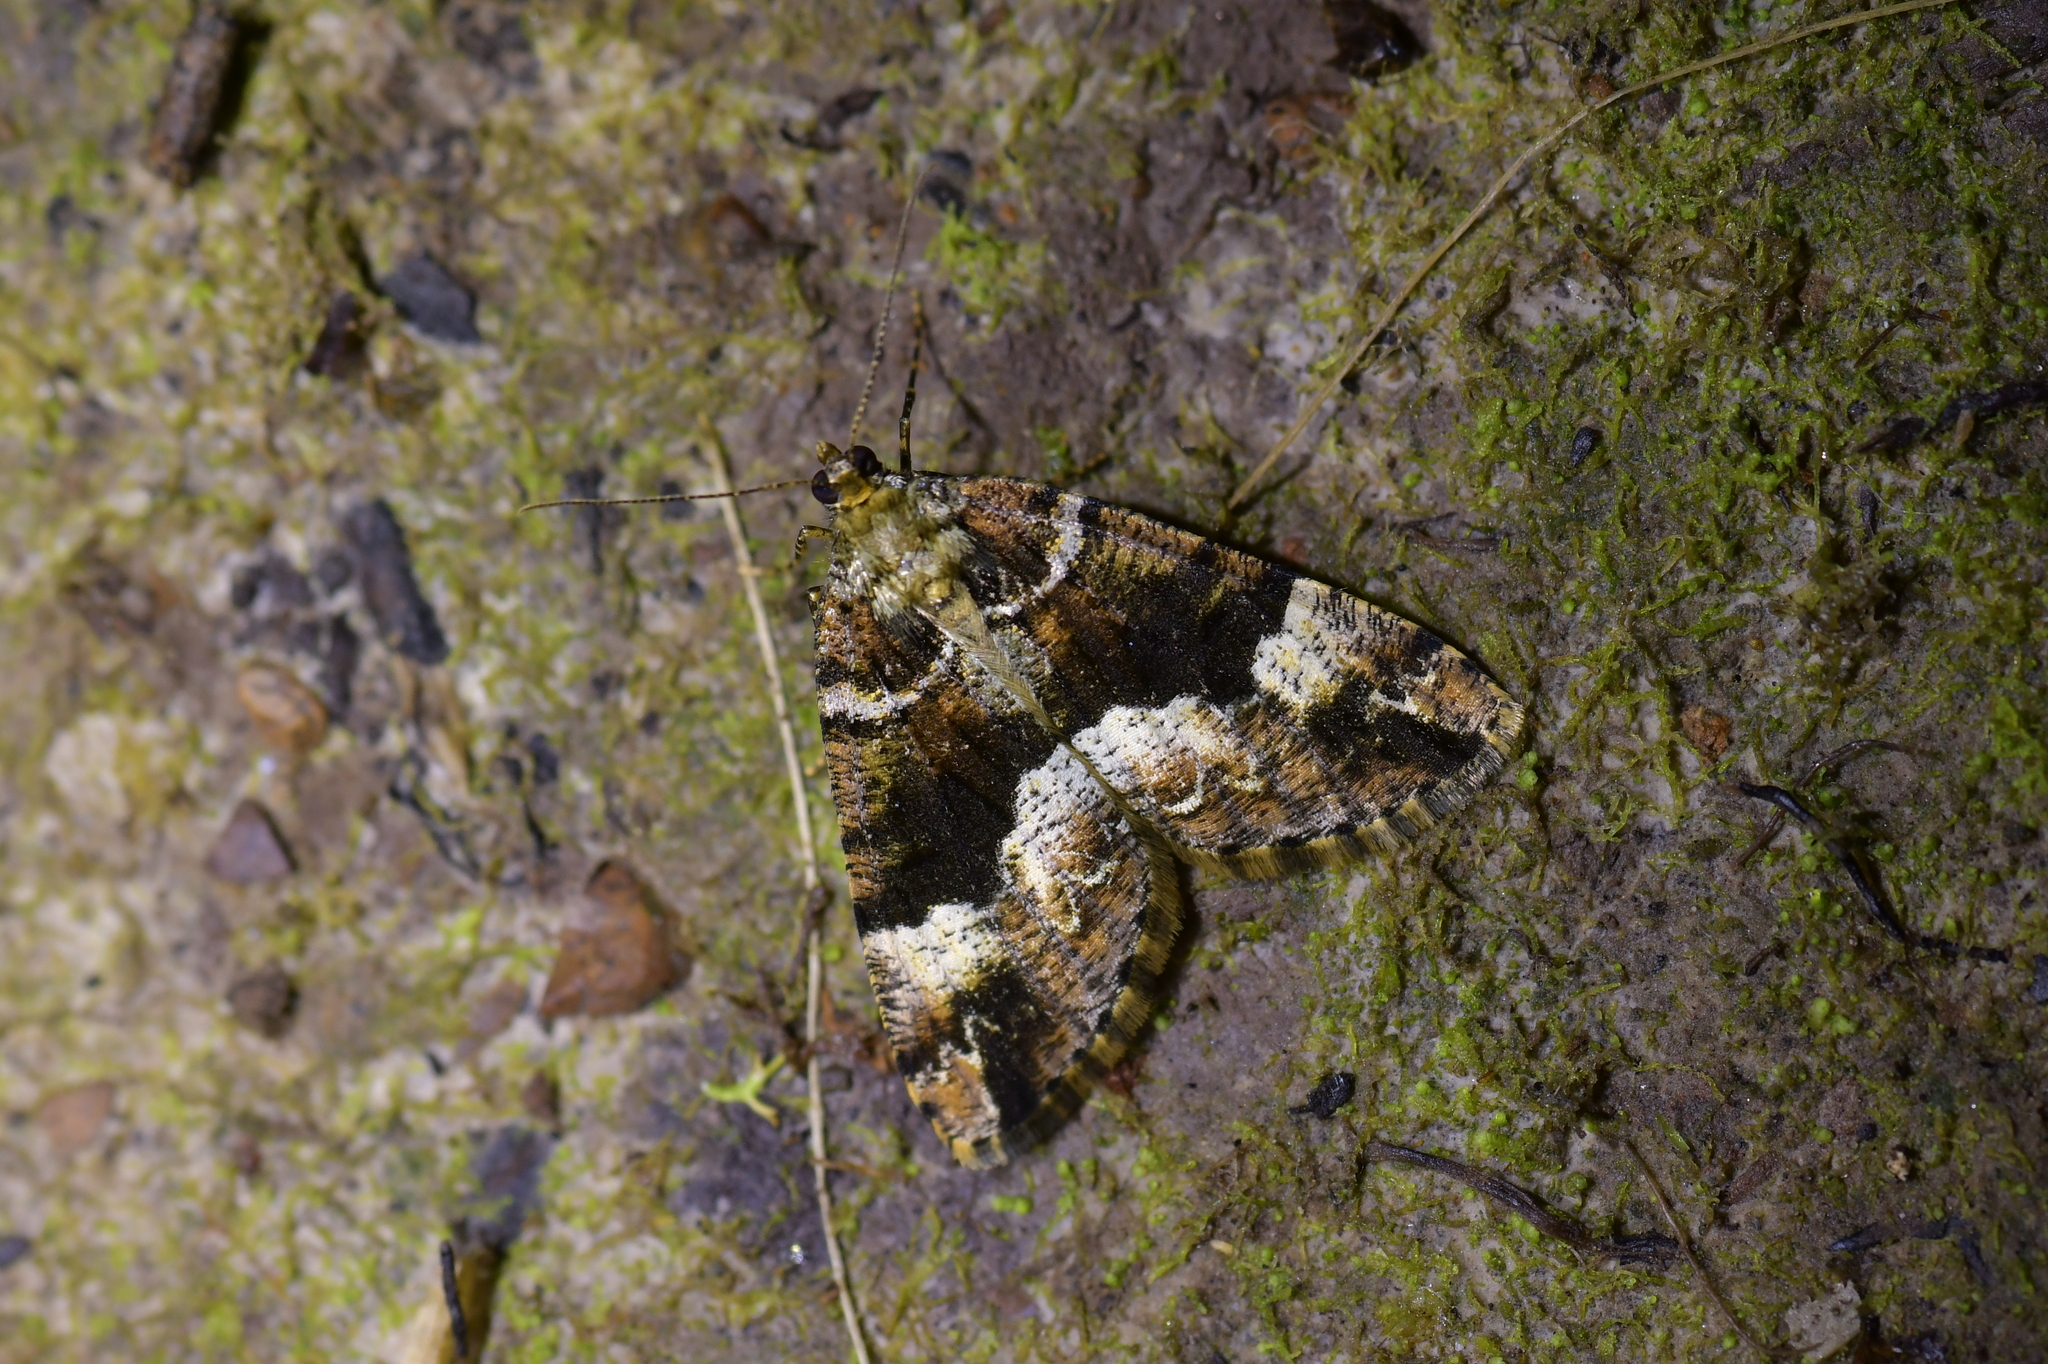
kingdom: Animalia
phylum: Arthropoda
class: Insecta
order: Lepidoptera
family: Geometridae
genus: Pseudocoremia
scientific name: Pseudocoremia productata
